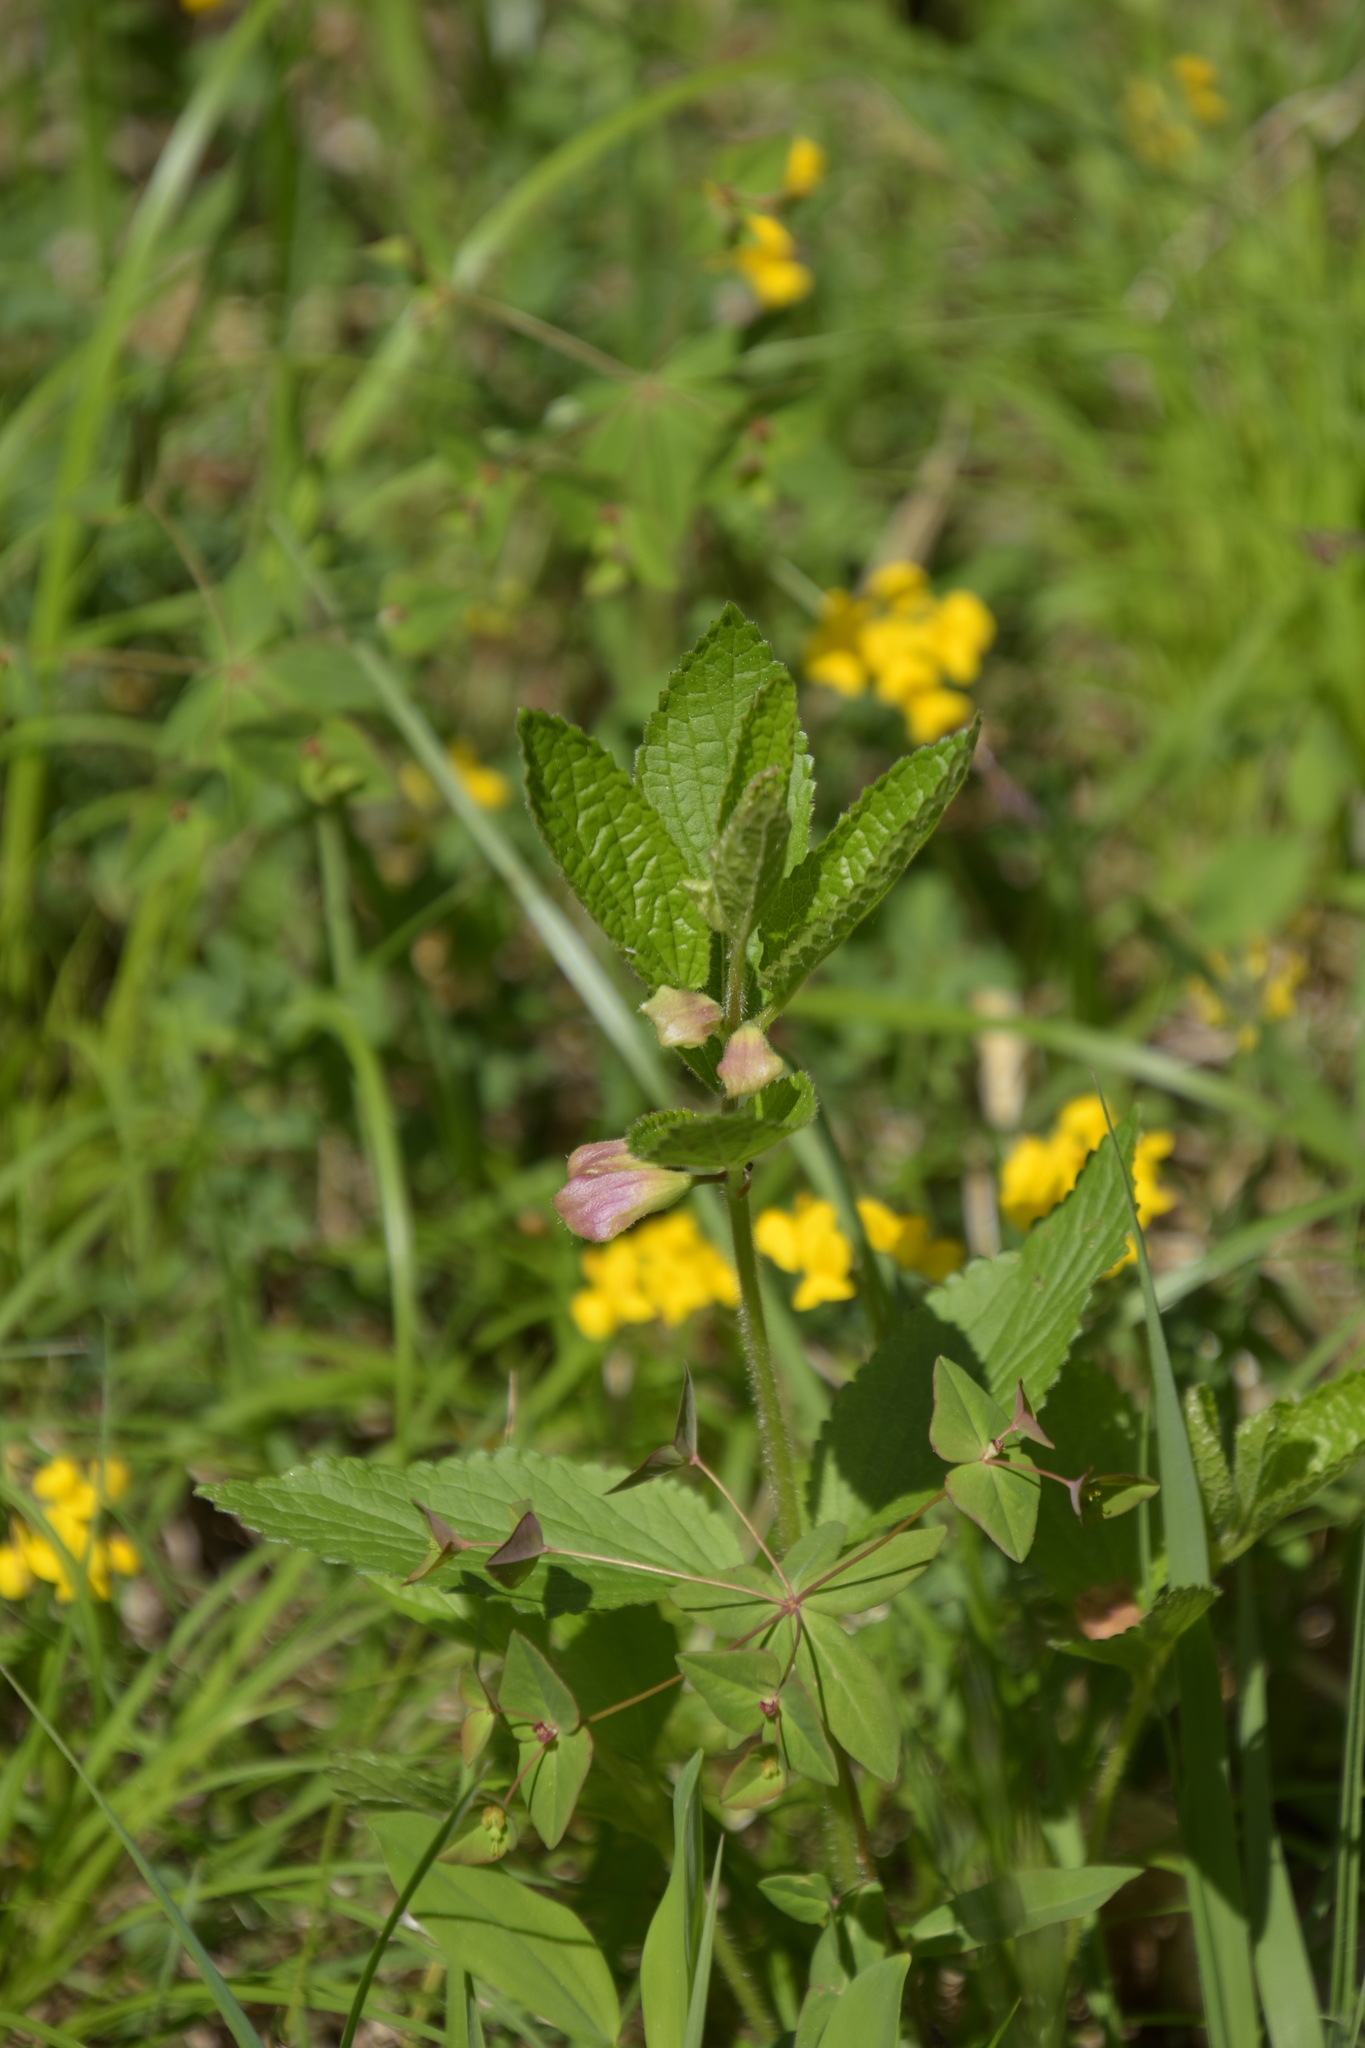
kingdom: Plantae
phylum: Tracheophyta
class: Magnoliopsida
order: Lamiales
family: Lamiaceae
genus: Melittis
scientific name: Melittis melissophyllum
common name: Bastard balm
